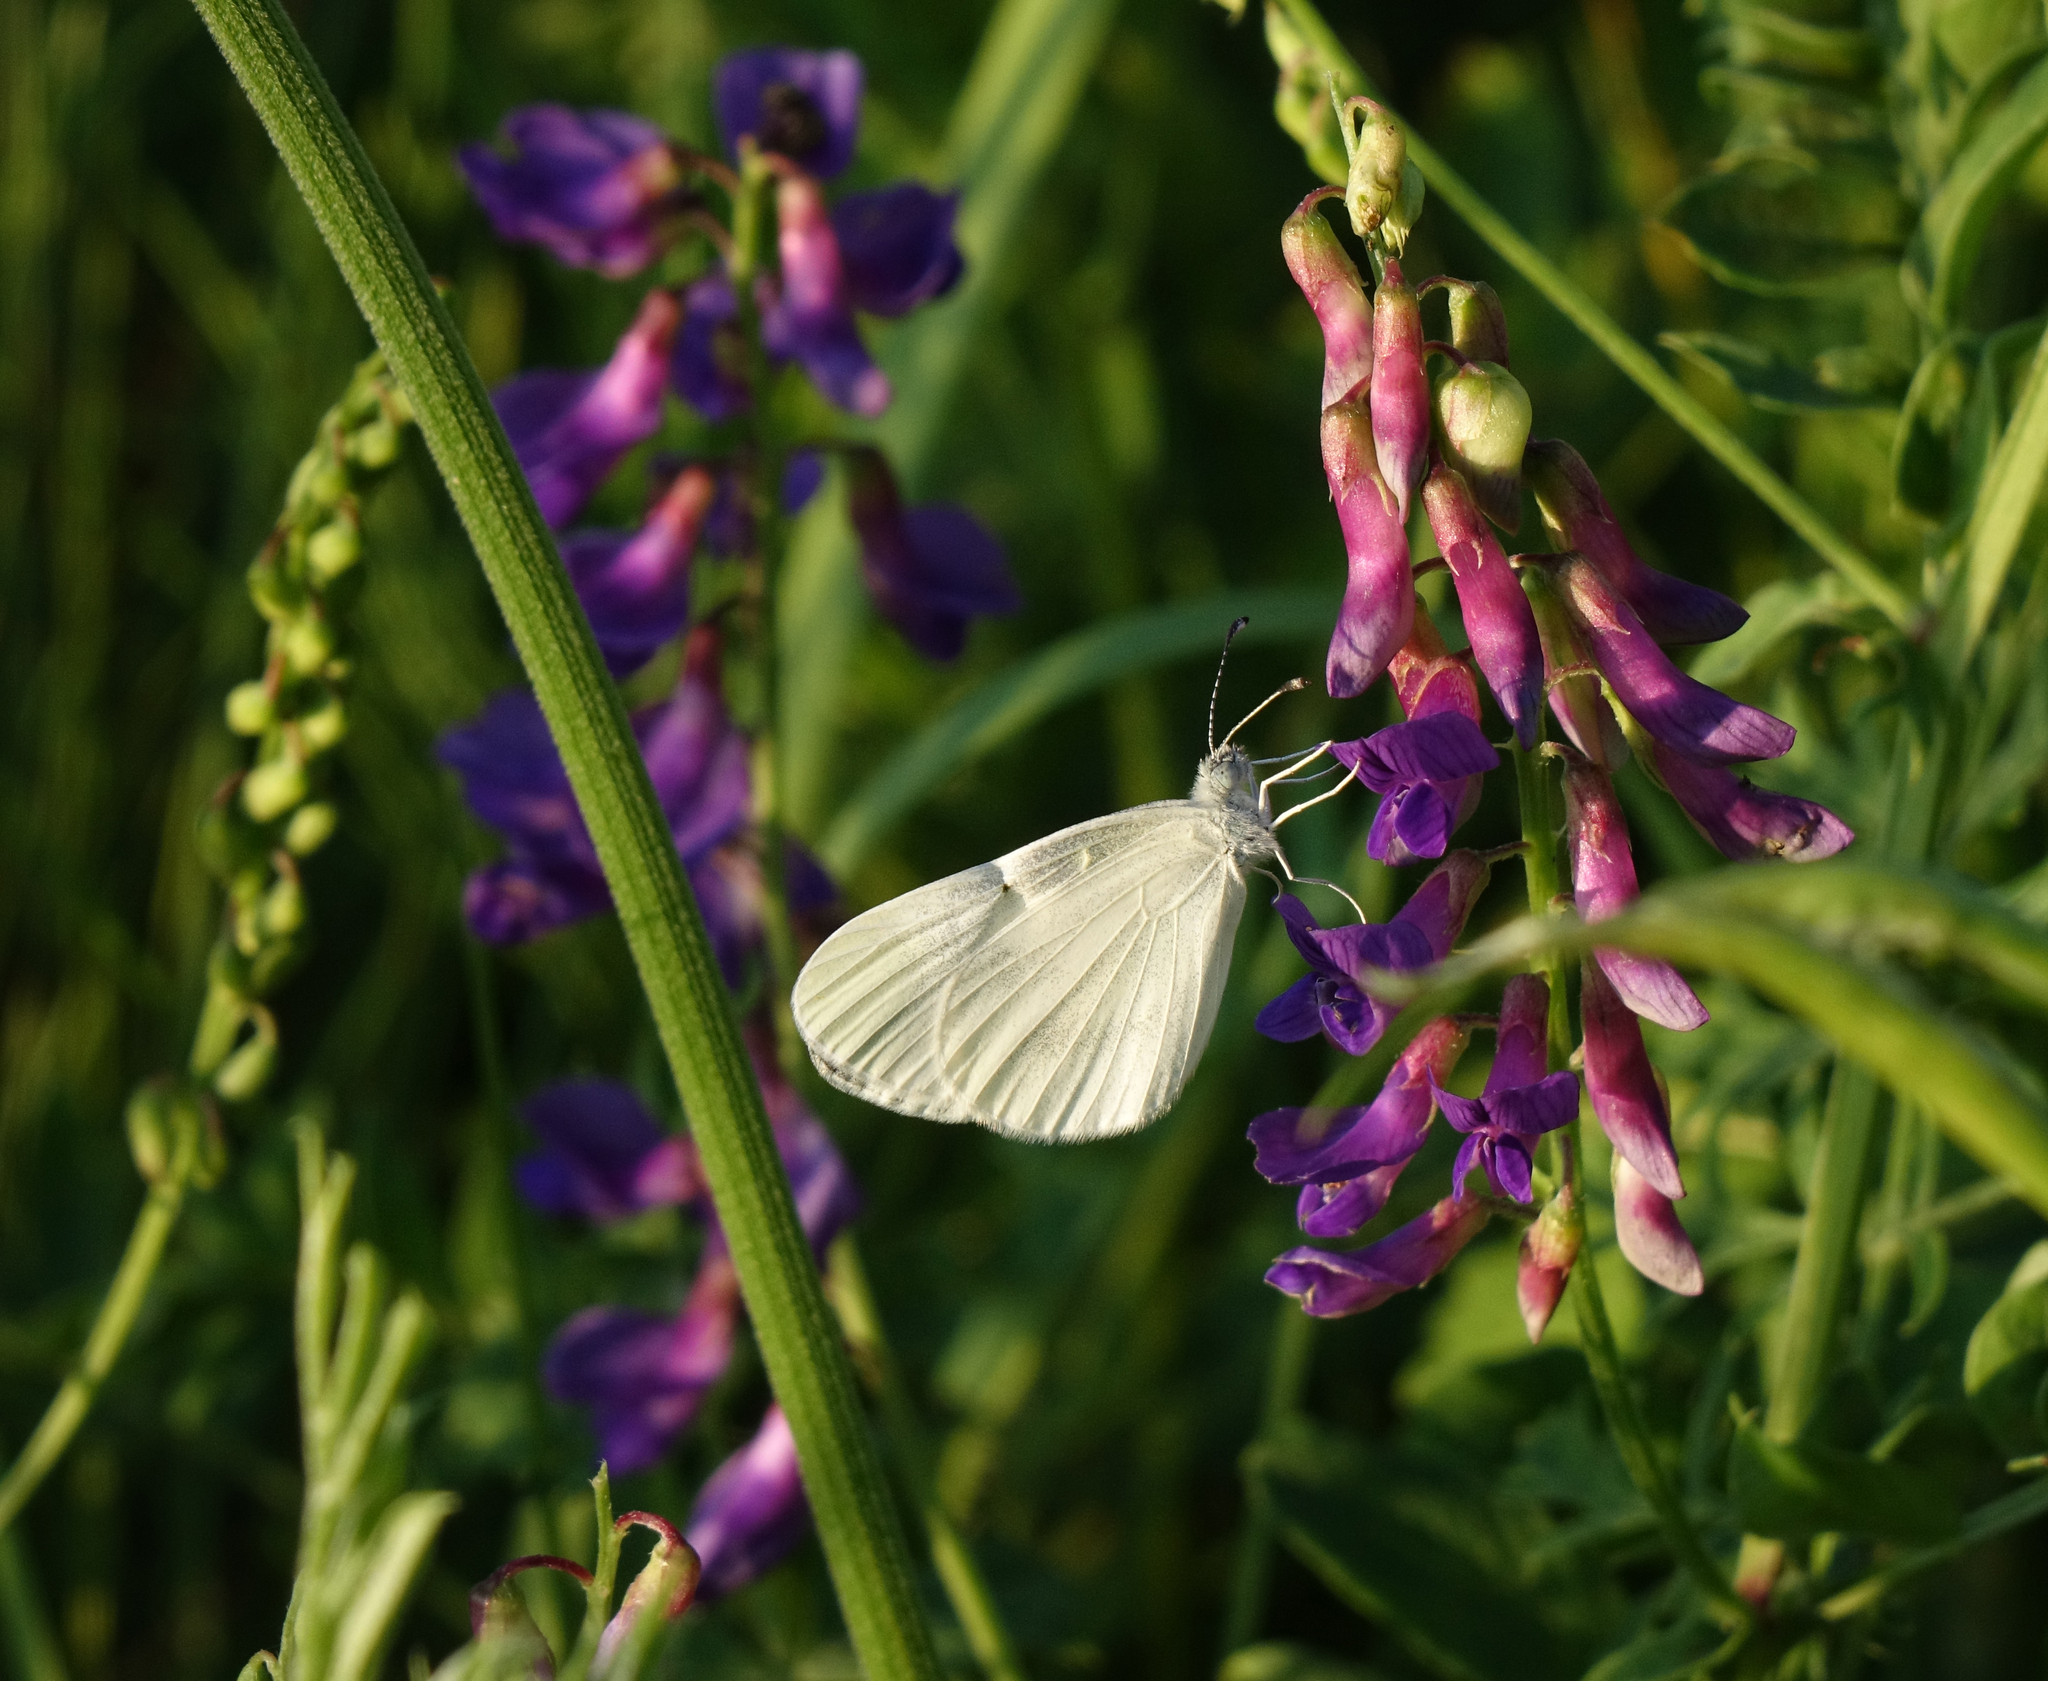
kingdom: Plantae
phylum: Tracheophyta
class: Magnoliopsida
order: Fabales
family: Fabaceae
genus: Vicia
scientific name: Vicia amoena
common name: Cheder ebs
